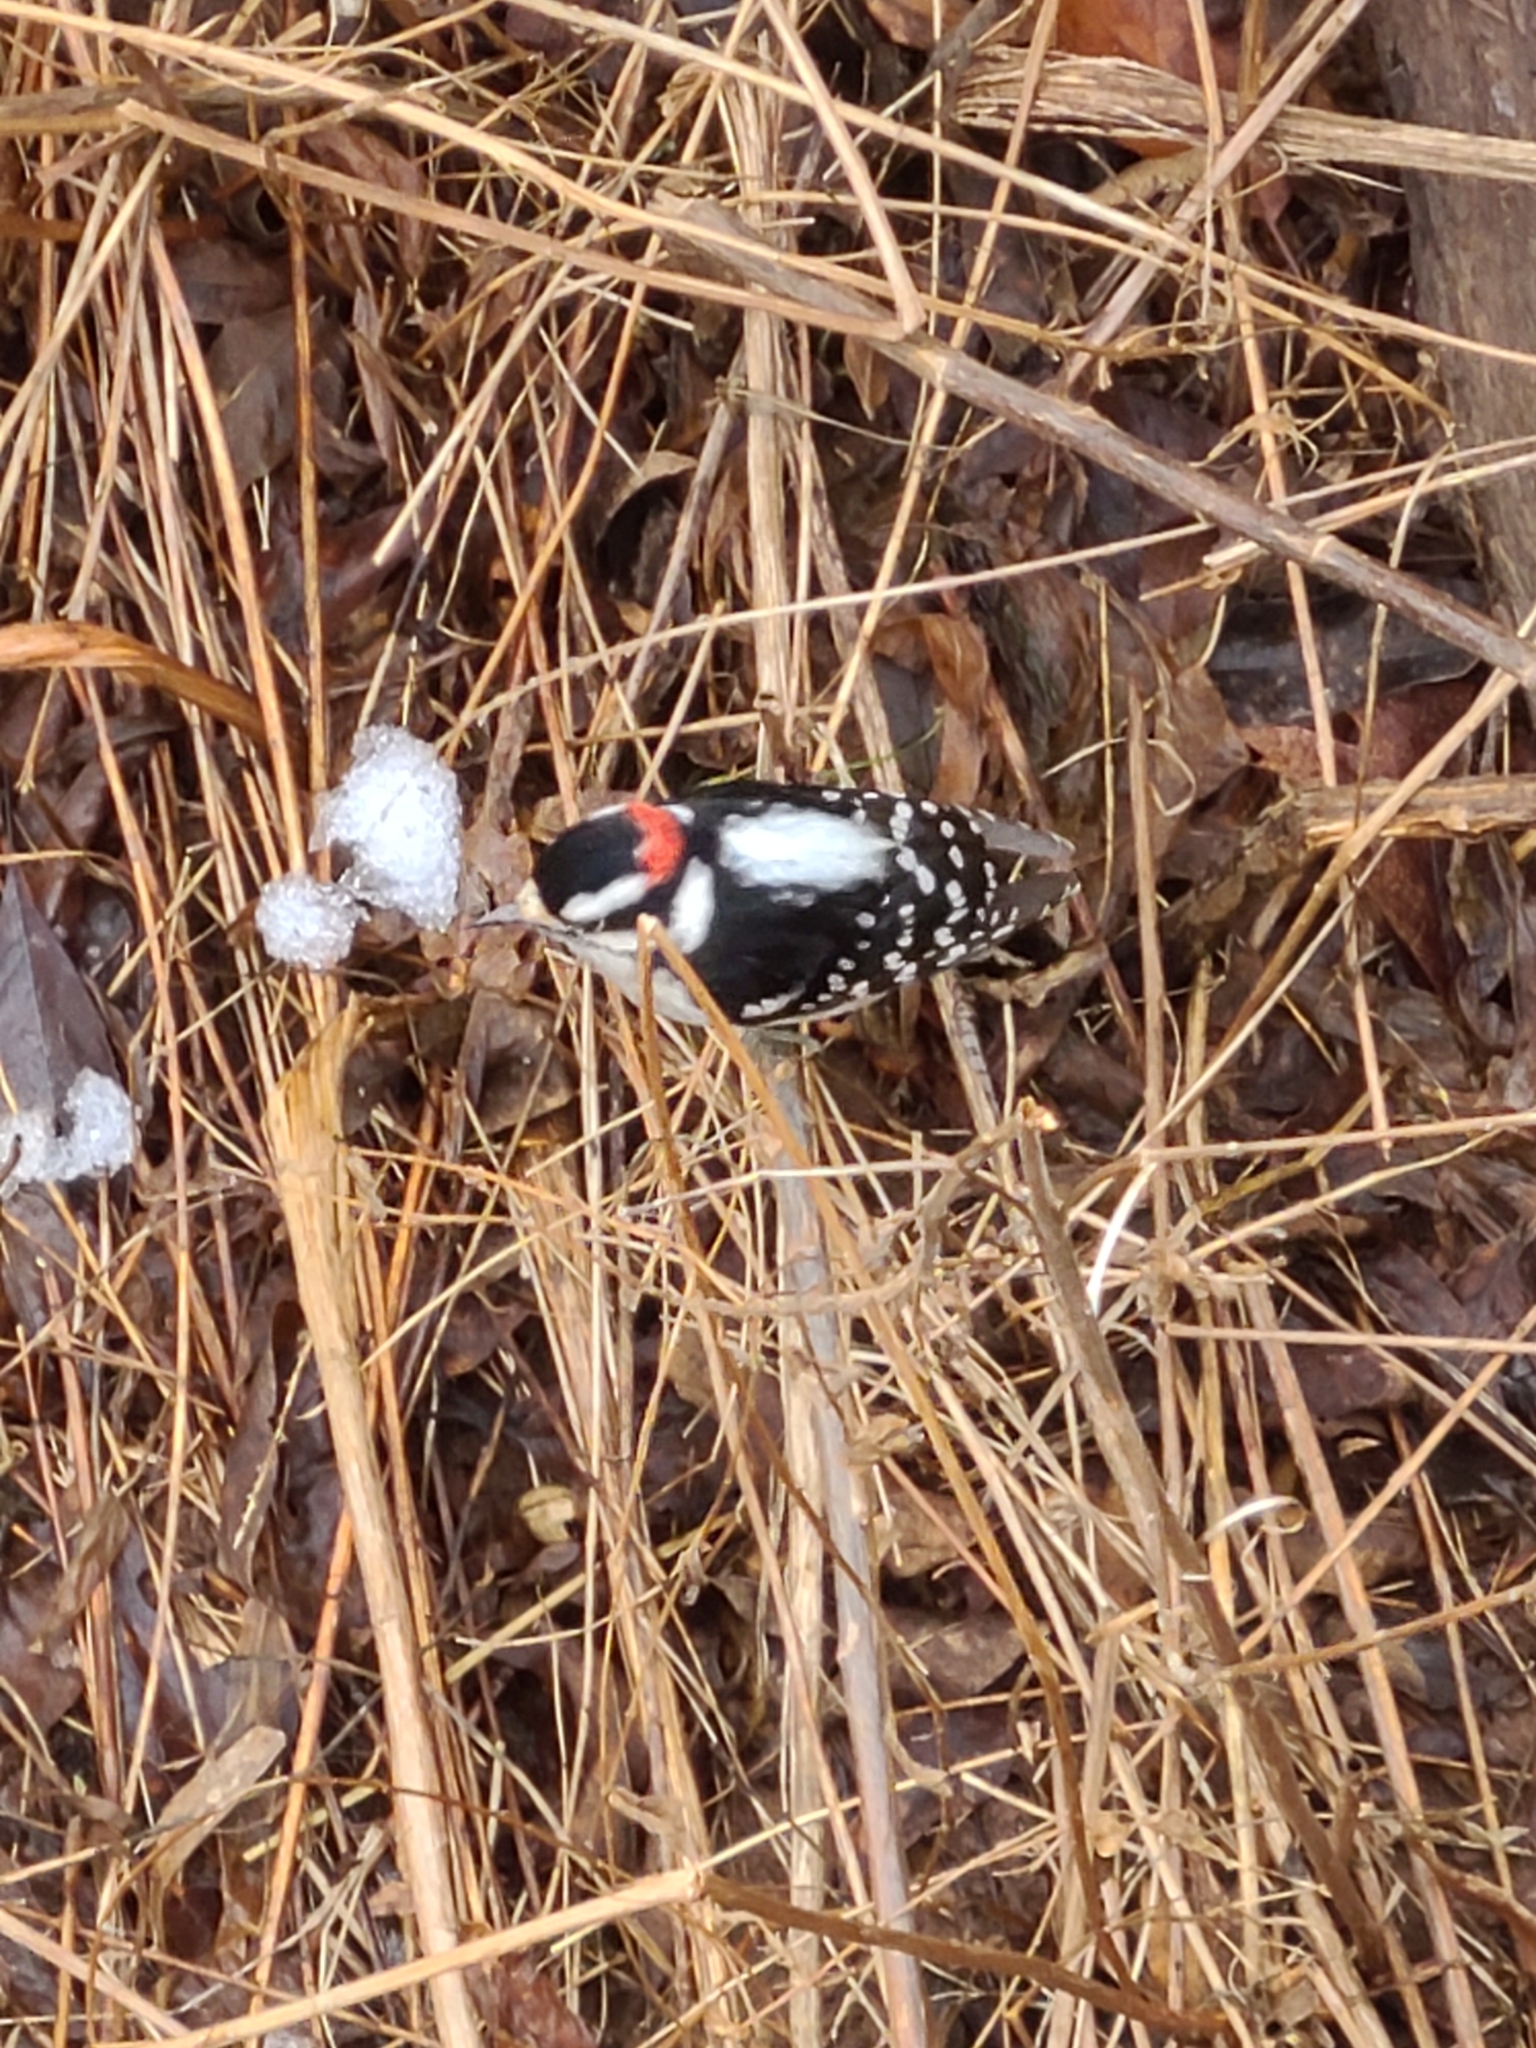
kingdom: Animalia
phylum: Chordata
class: Aves
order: Piciformes
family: Picidae
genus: Dryobates
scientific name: Dryobates pubescens
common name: Downy woodpecker
